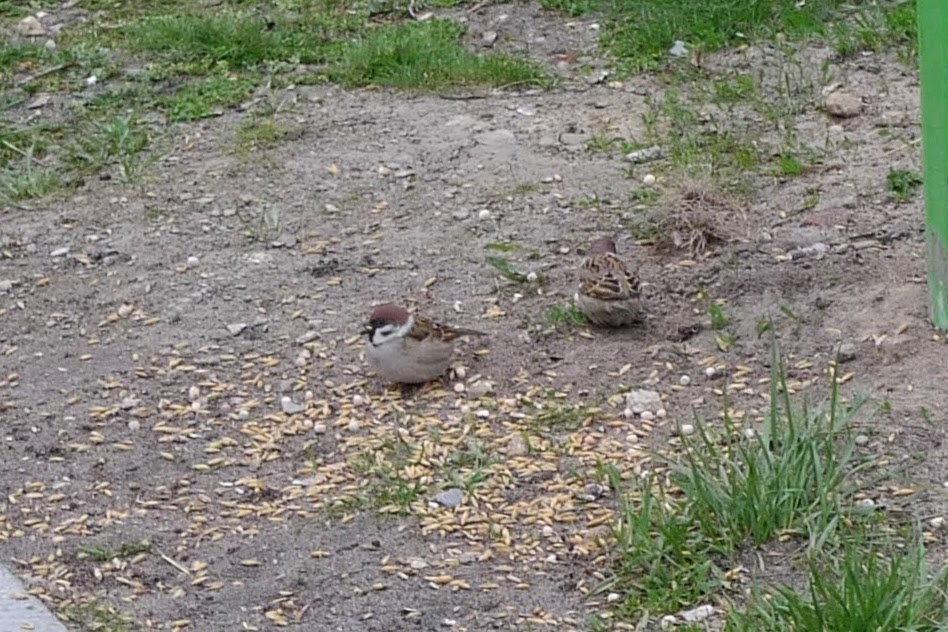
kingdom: Animalia
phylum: Chordata
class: Aves
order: Passeriformes
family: Passeridae
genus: Passer
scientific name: Passer montanus
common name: Eurasian tree sparrow
